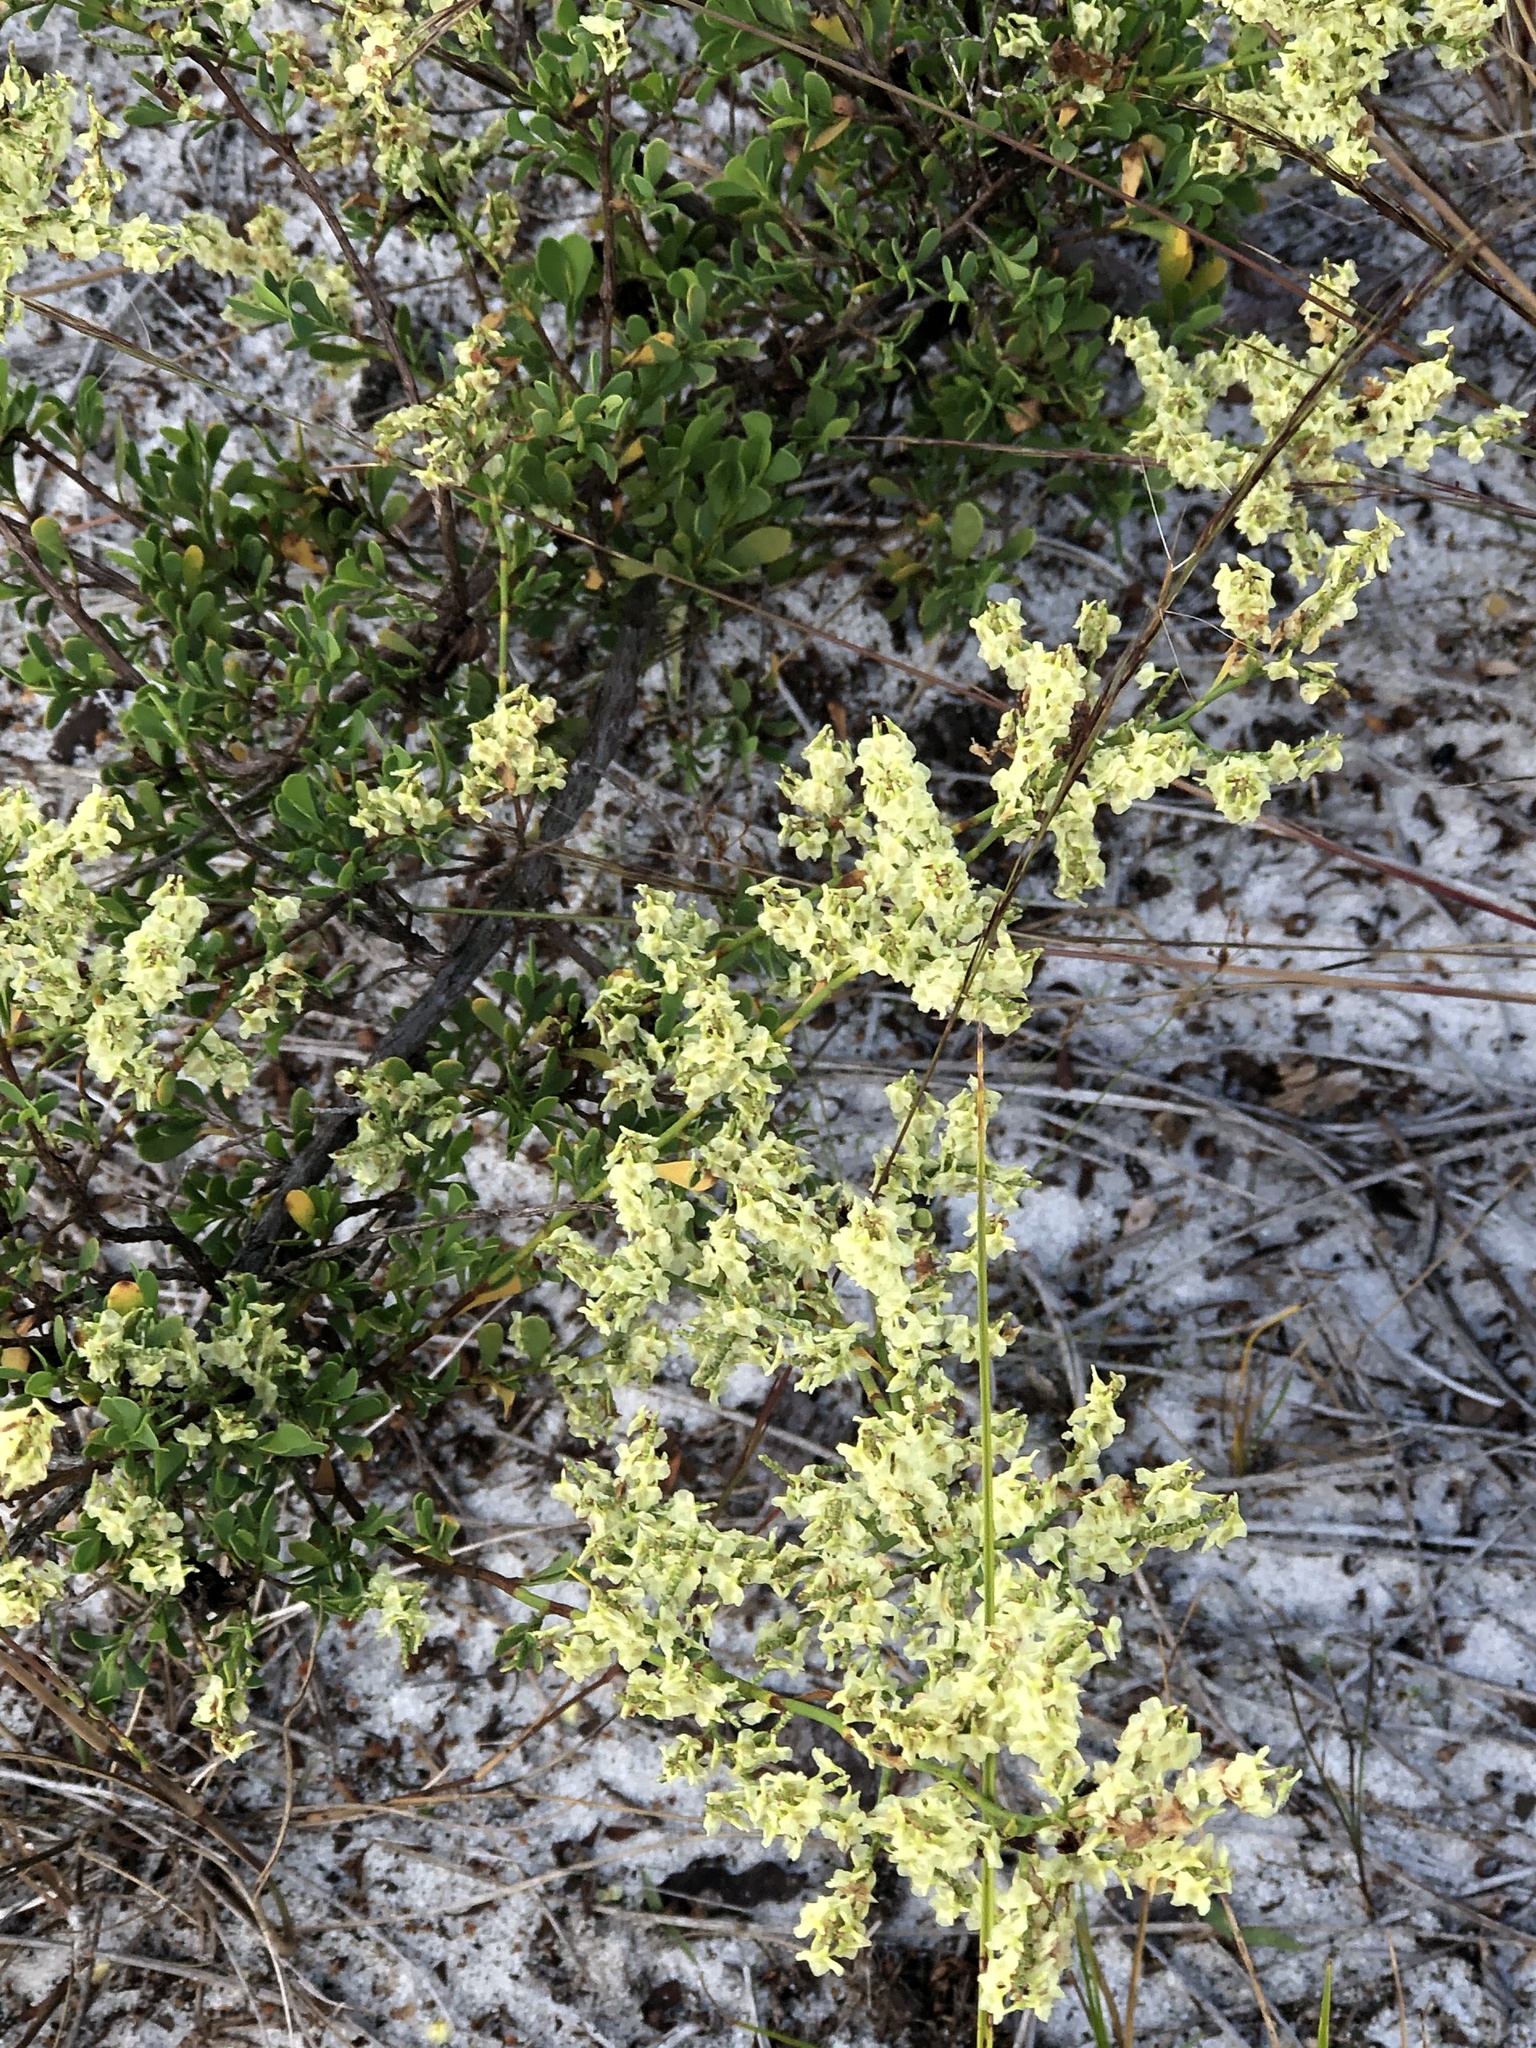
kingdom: Plantae
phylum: Tracheophyta
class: Magnoliopsida
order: Caryophyllales
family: Polygonaceae
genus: Polygonella
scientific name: Polygonella polygama
